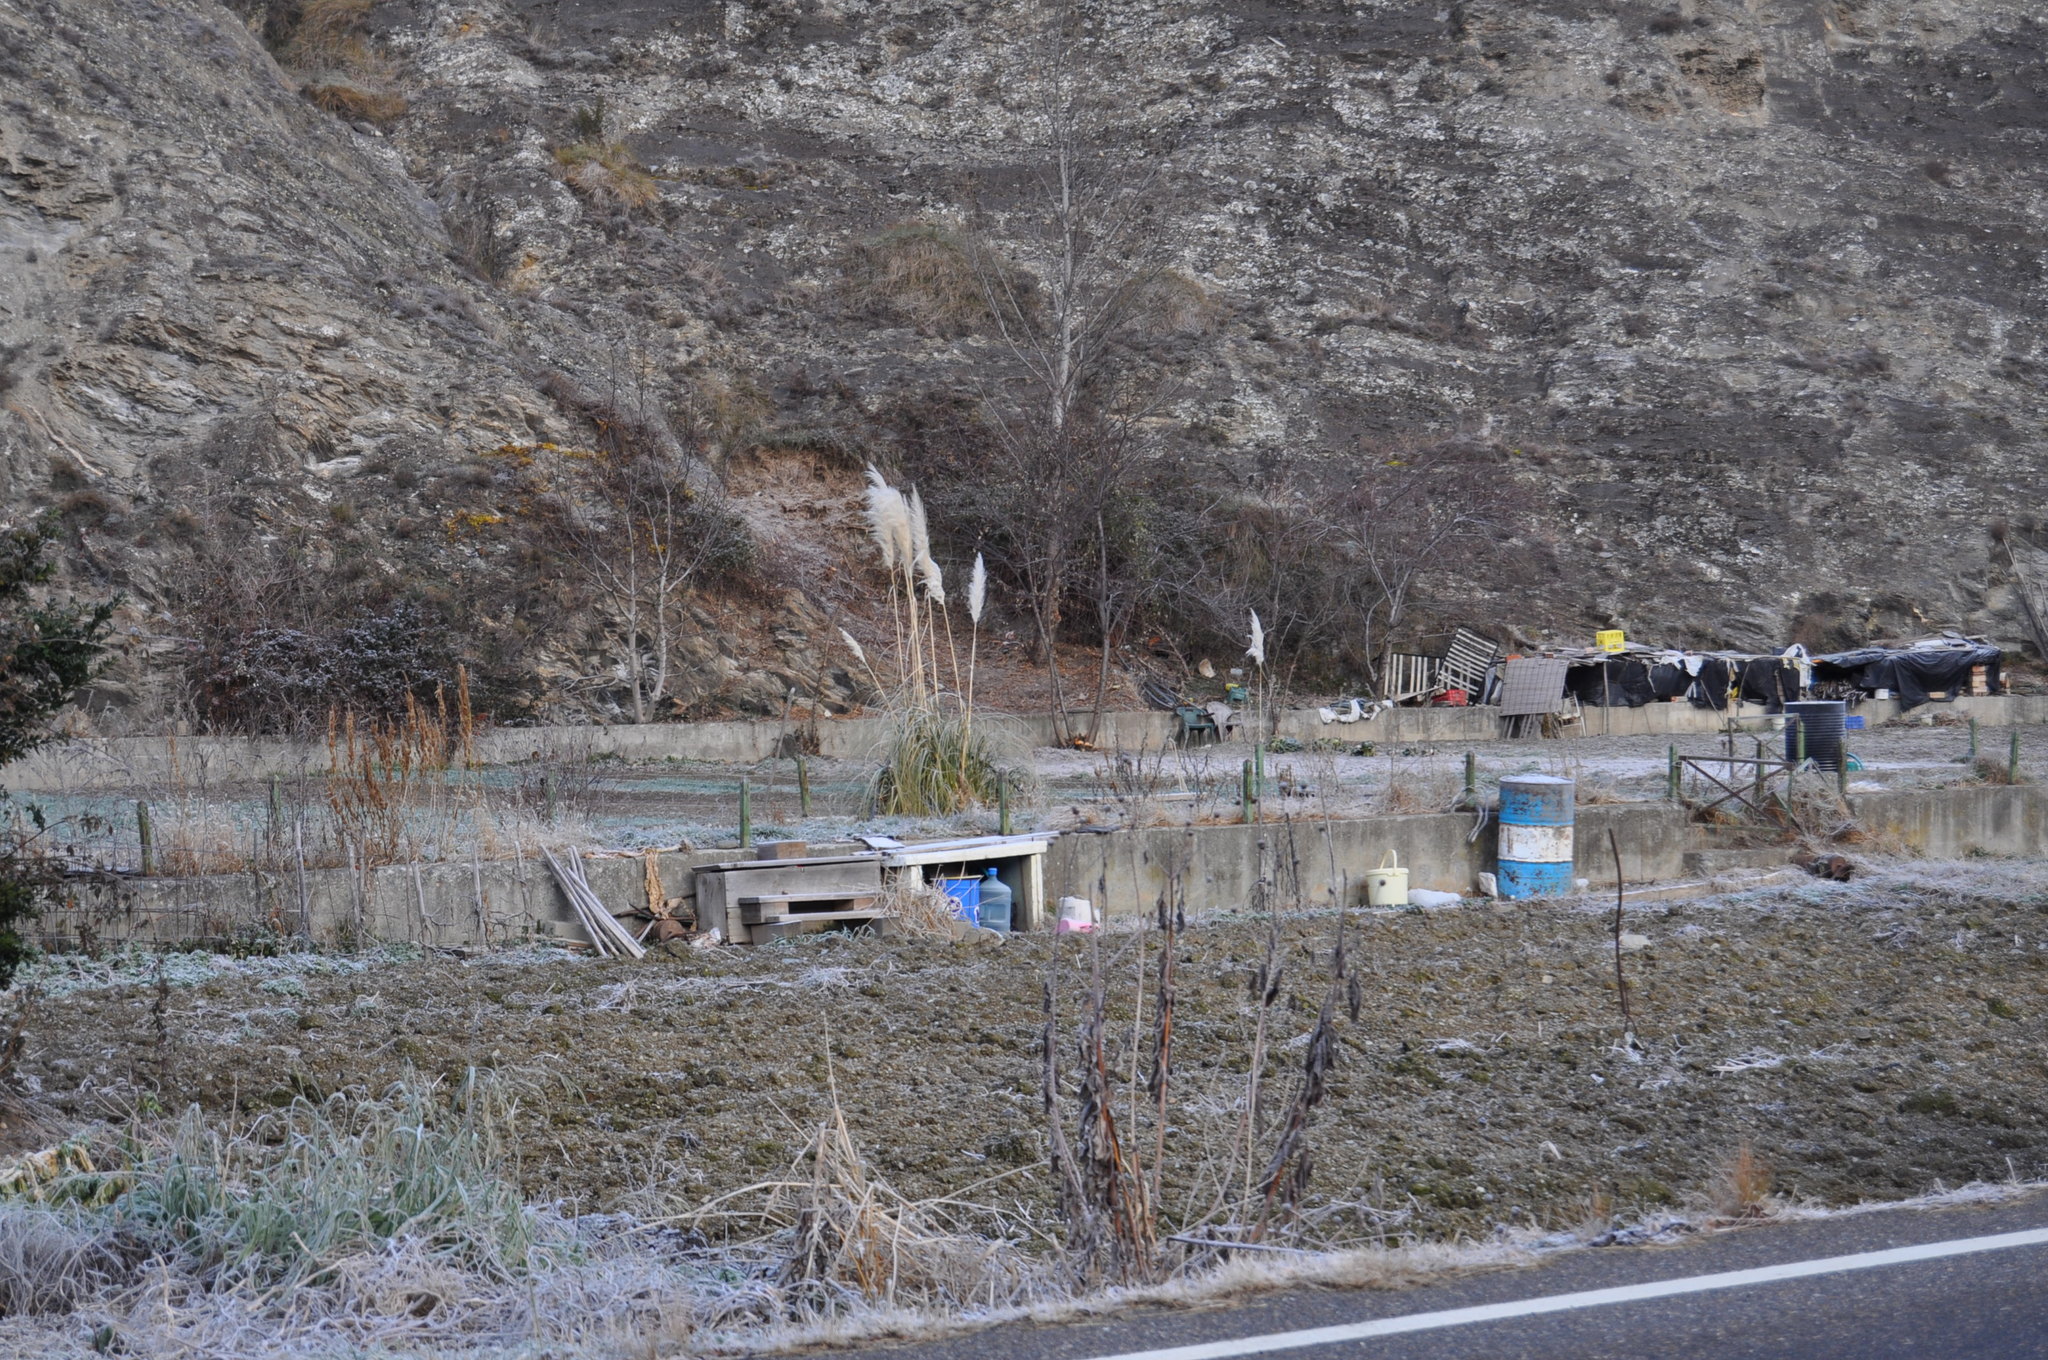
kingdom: Plantae
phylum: Tracheophyta
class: Liliopsida
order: Poales
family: Poaceae
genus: Cortaderia
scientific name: Cortaderia selloana
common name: Uruguayan pampas grass
